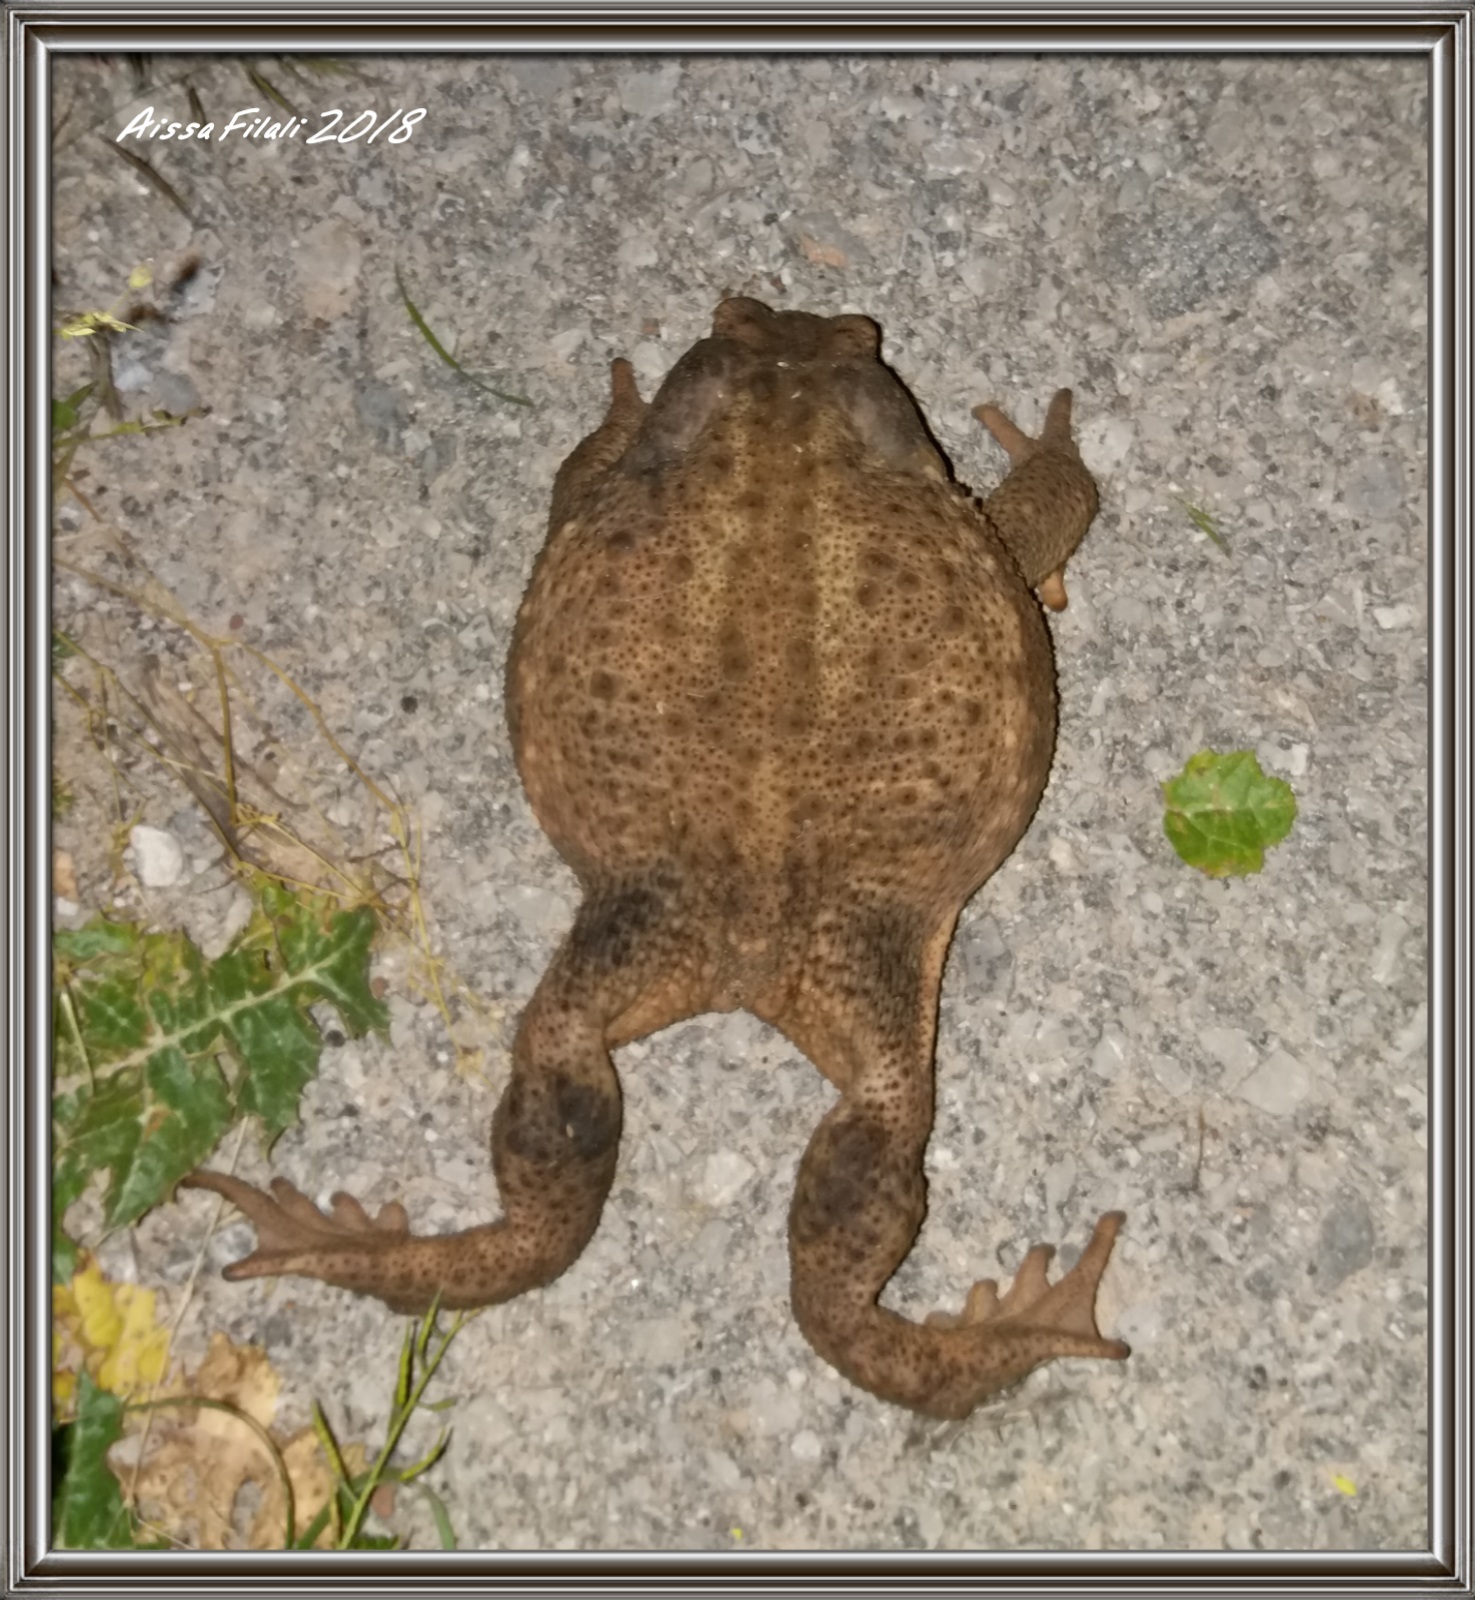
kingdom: Animalia
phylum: Chordata
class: Amphibia
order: Anura
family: Bufonidae
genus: Bufo
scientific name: Bufo spinosus
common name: Western common toad
